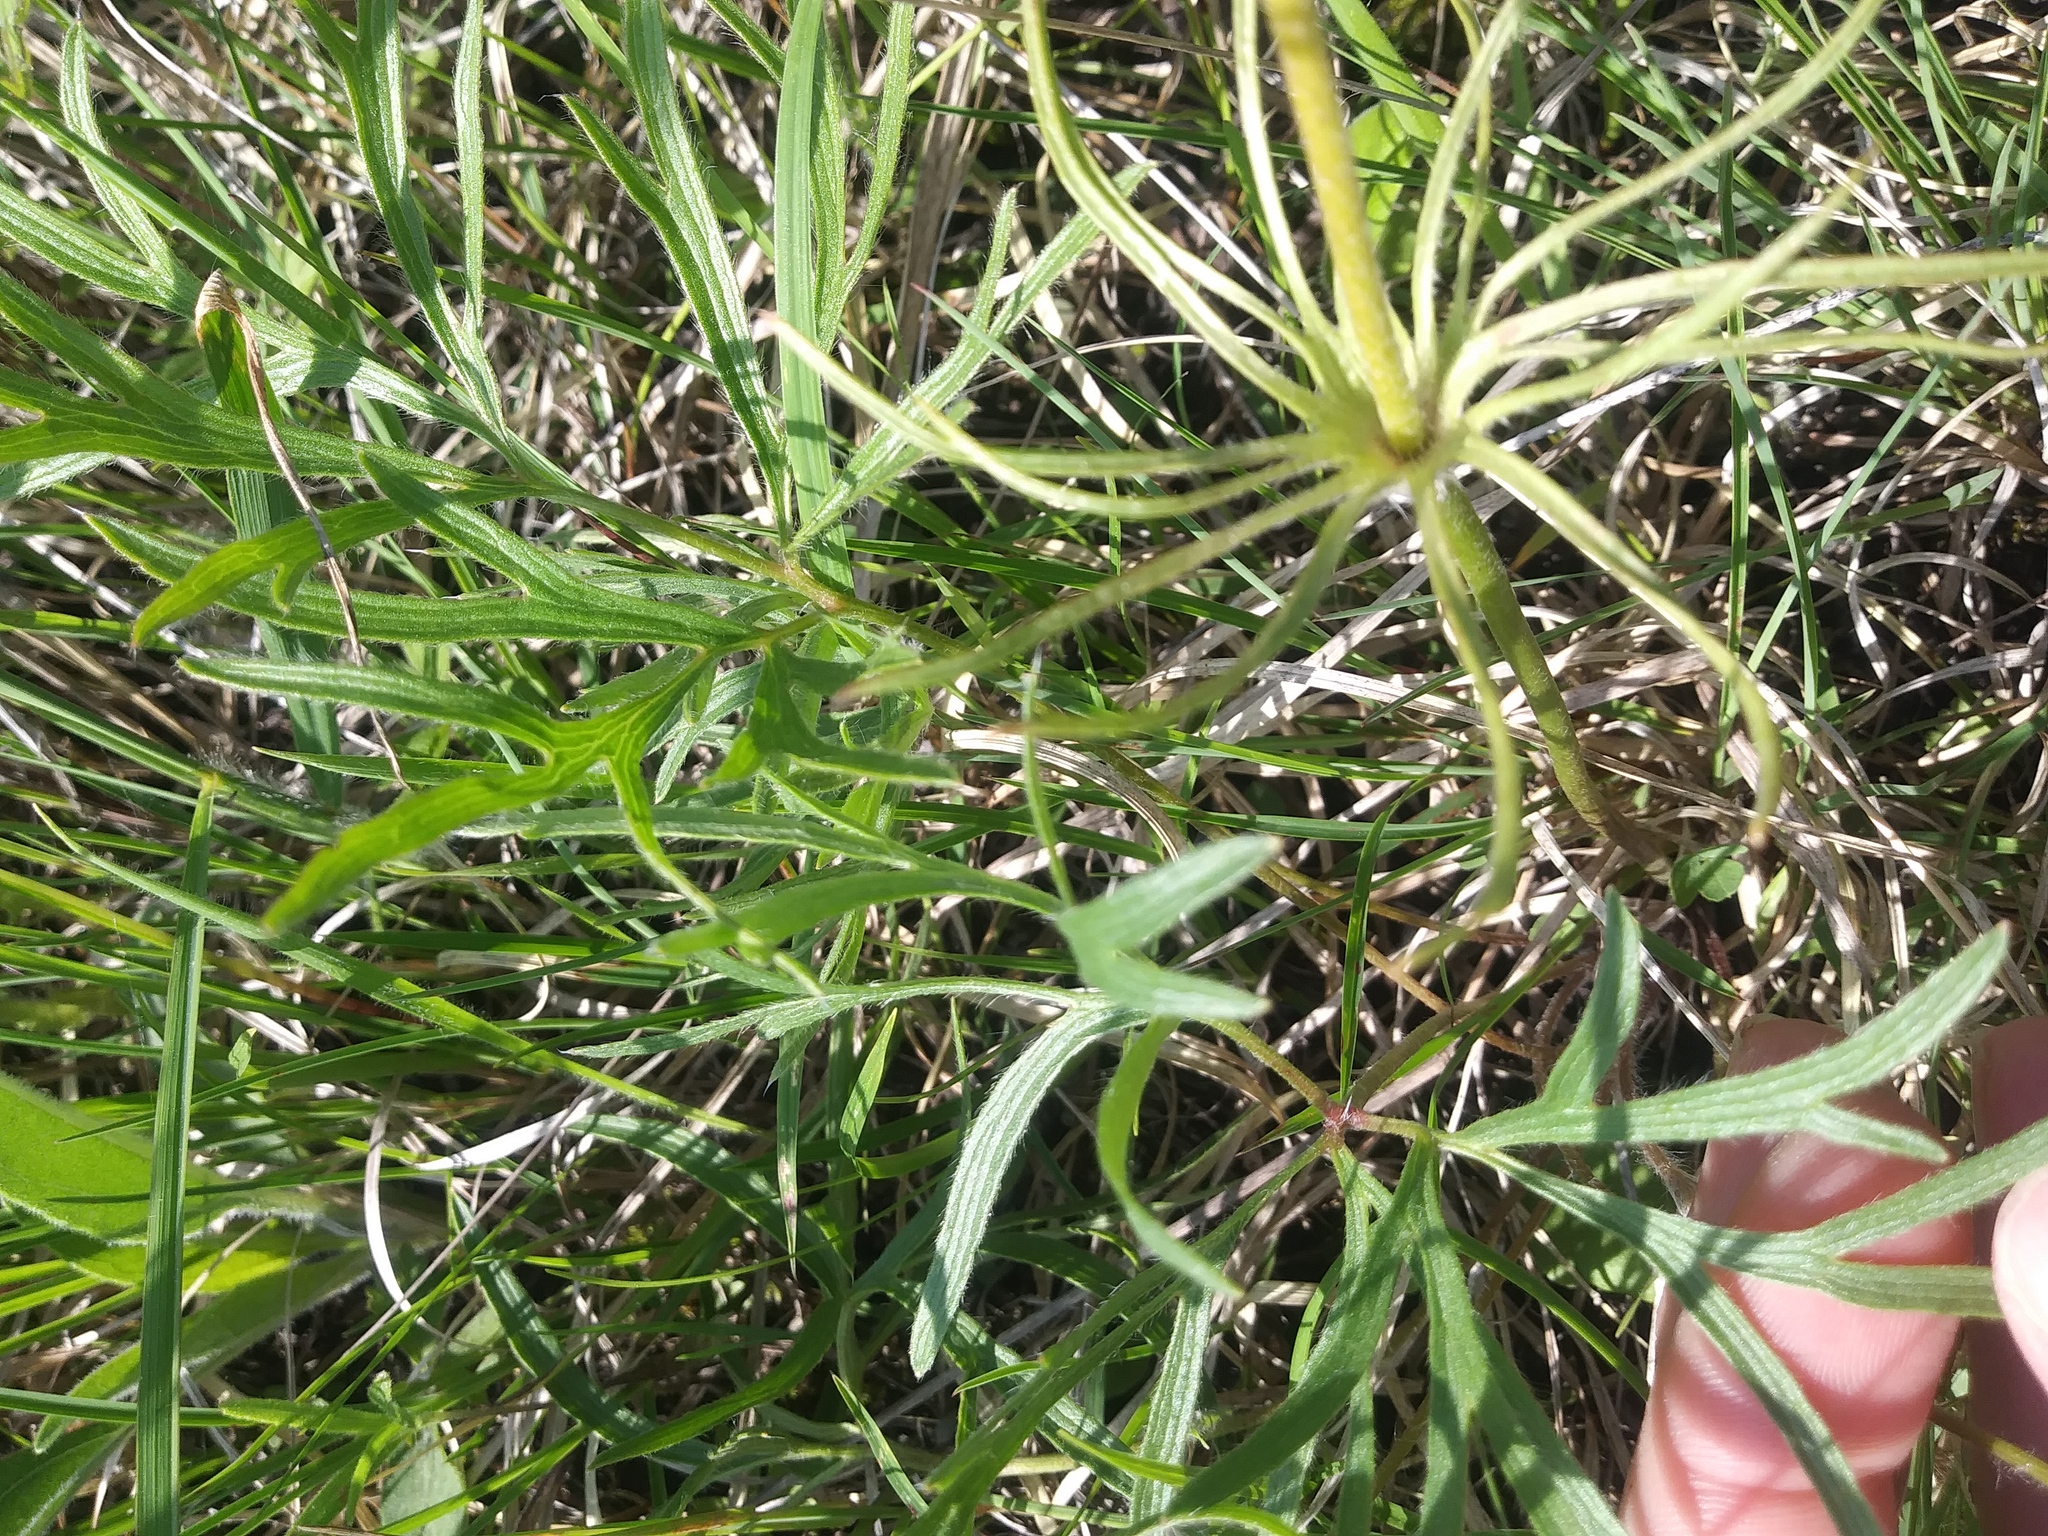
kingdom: Plantae
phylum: Tracheophyta
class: Magnoliopsida
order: Ranunculales
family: Ranunculaceae
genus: Pulsatilla
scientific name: Pulsatilla nuttalliana
